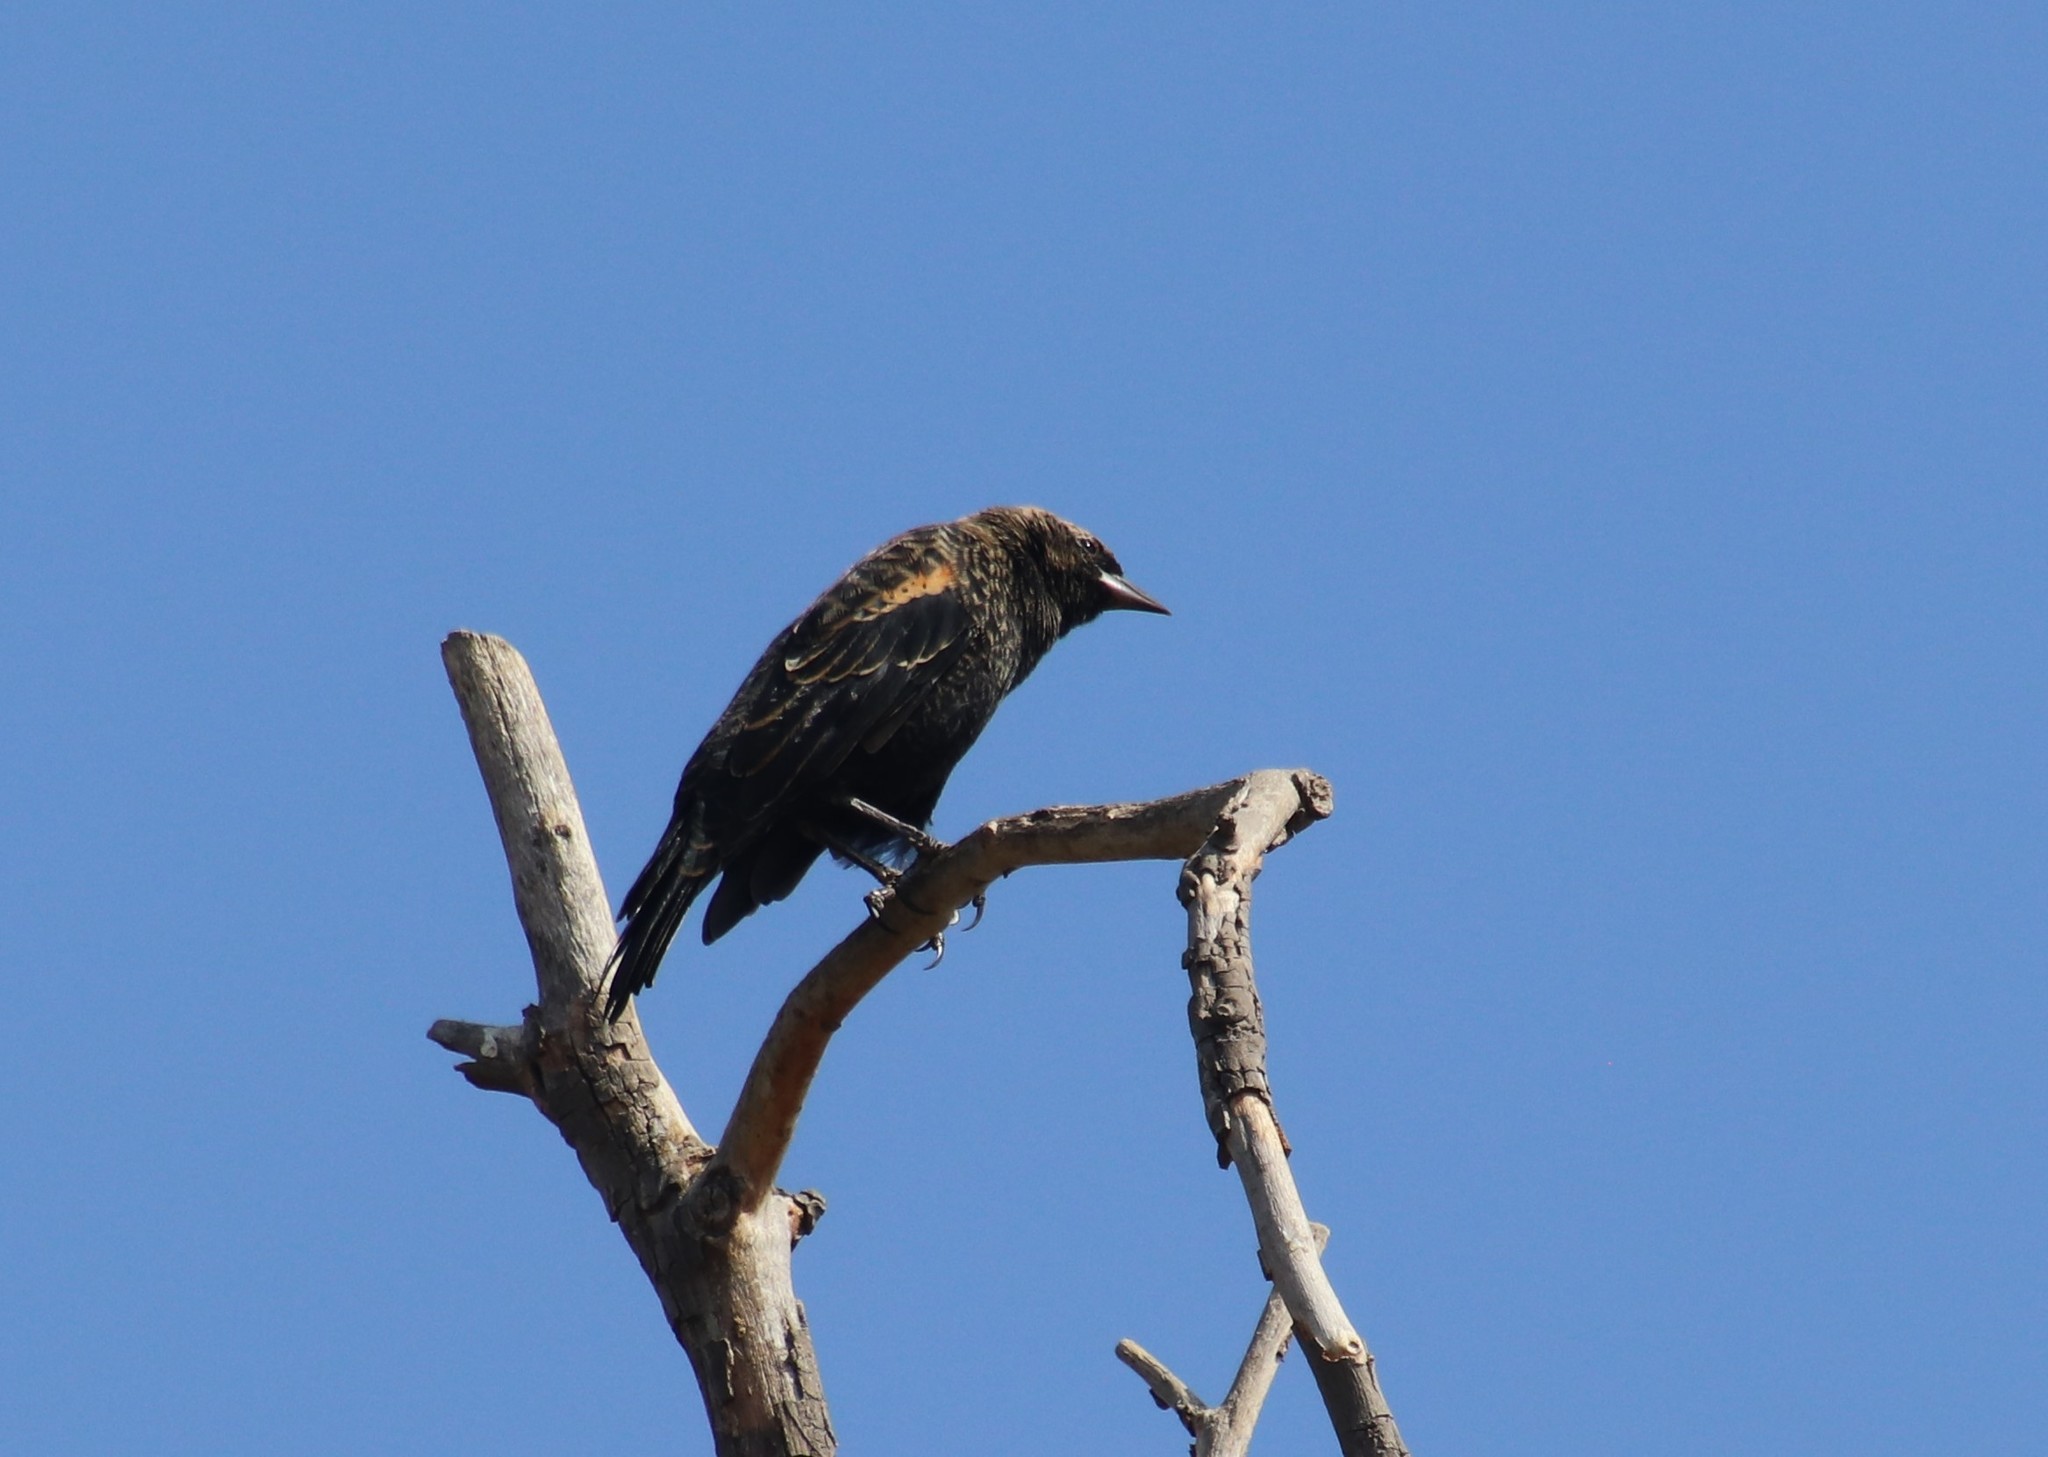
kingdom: Animalia
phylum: Chordata
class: Aves
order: Passeriformes
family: Icteridae
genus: Agelaius
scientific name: Agelaius phoeniceus
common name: Red-winged blackbird
